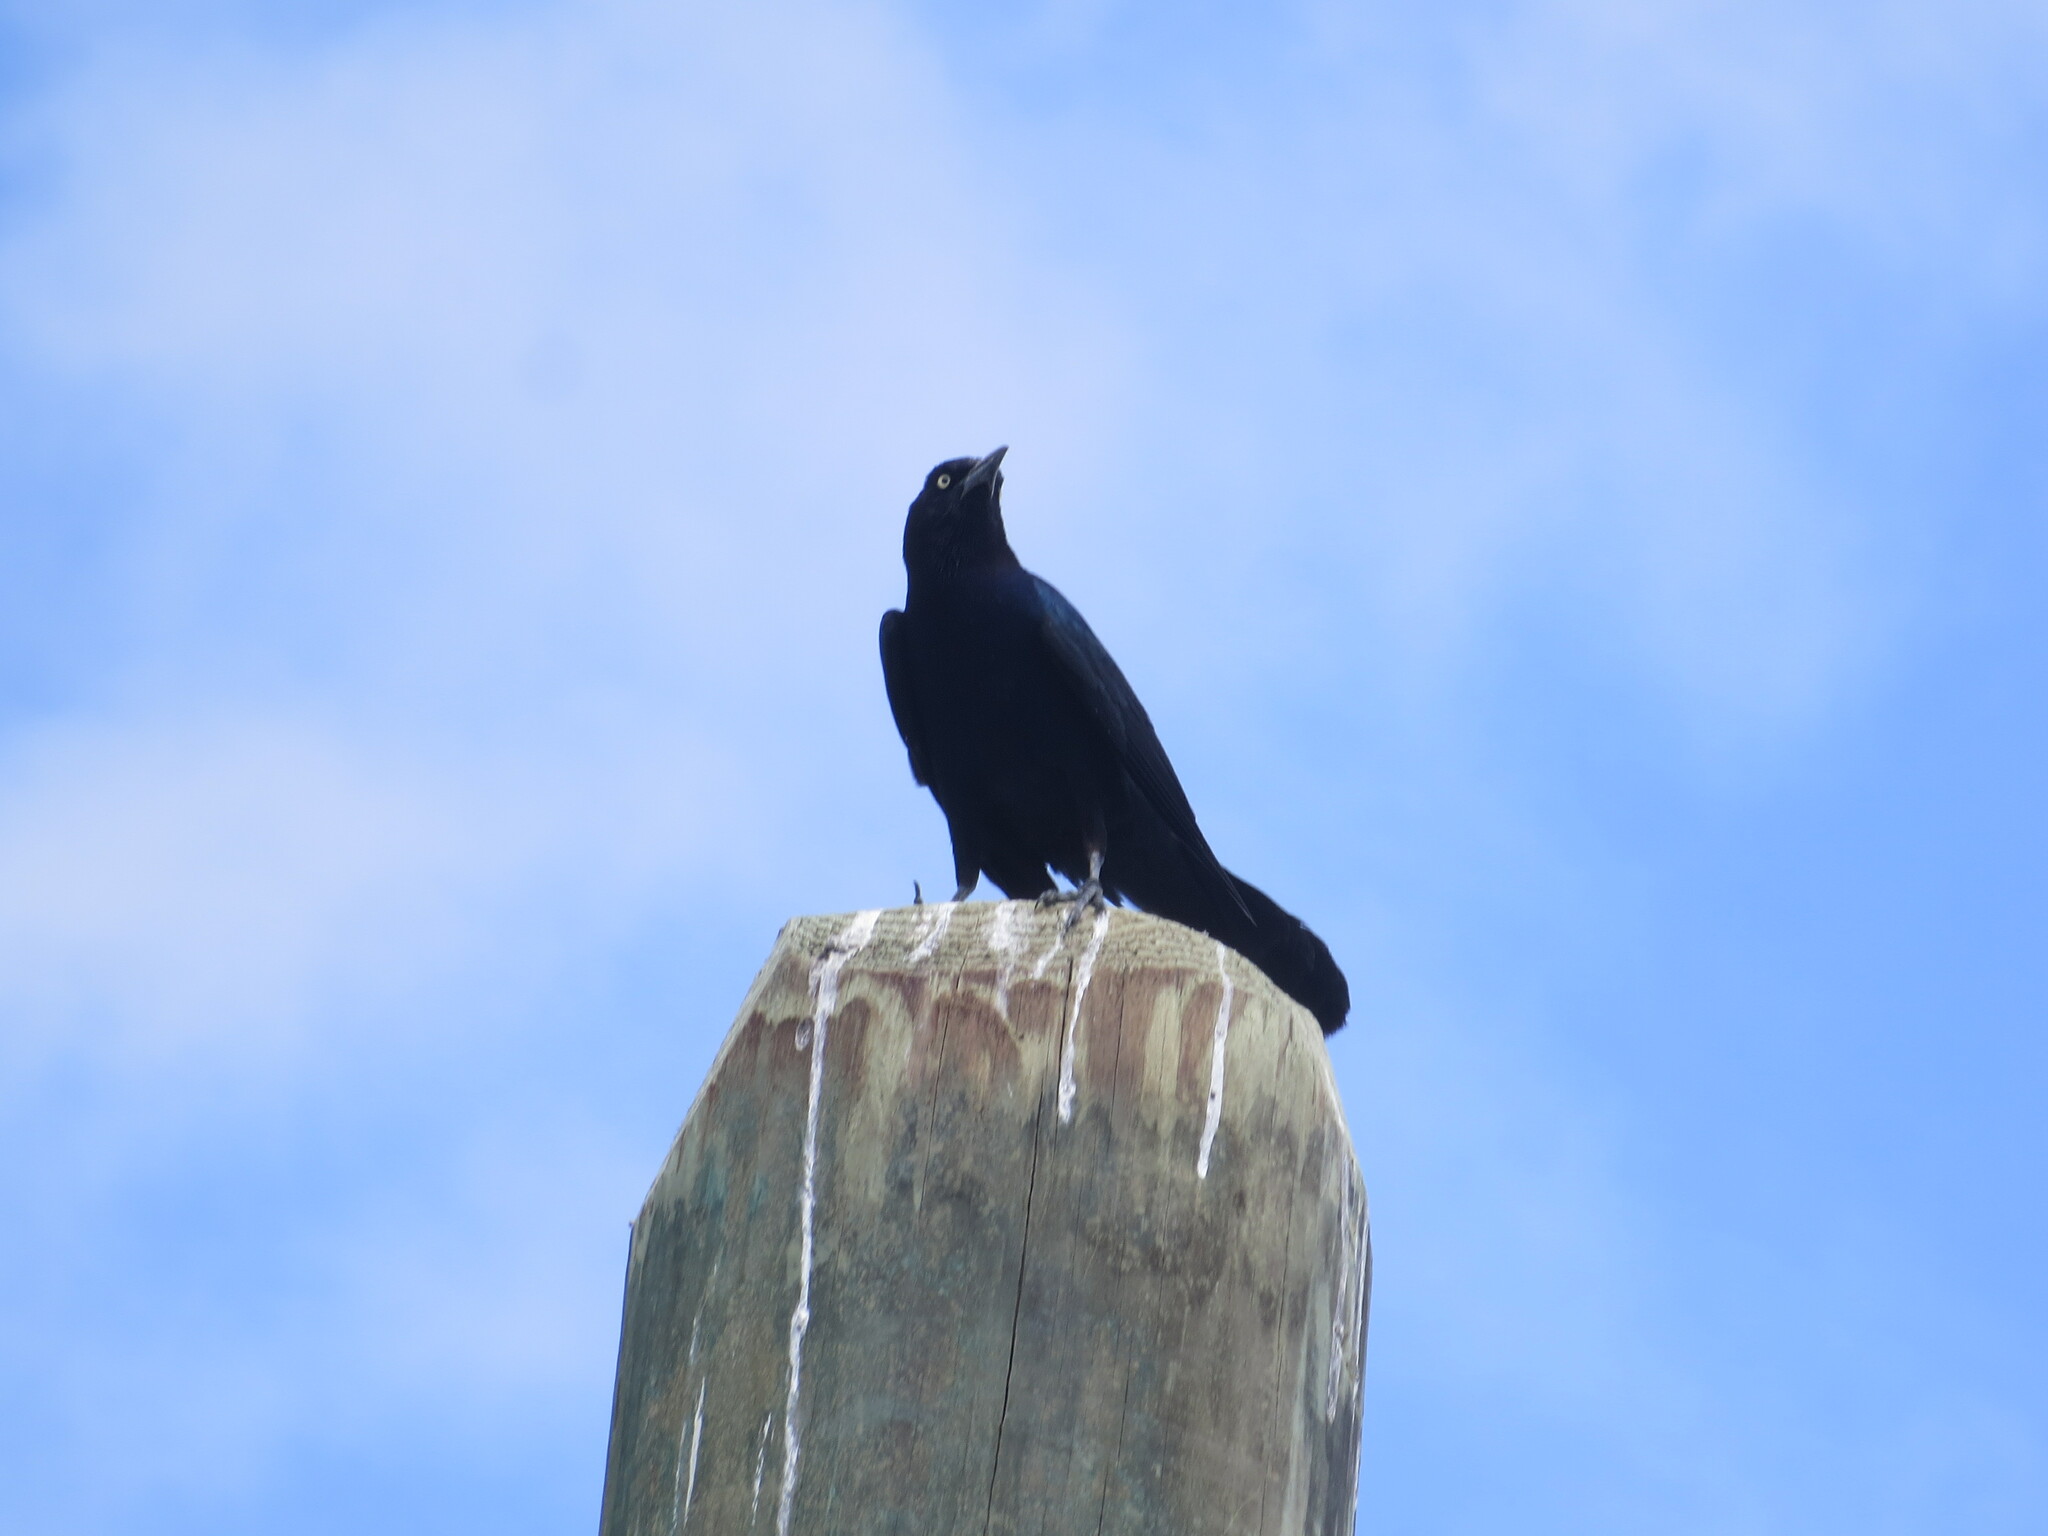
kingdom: Animalia
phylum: Chordata
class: Aves
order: Passeriformes
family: Icteridae
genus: Quiscalus
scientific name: Quiscalus major
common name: Boat-tailed grackle
